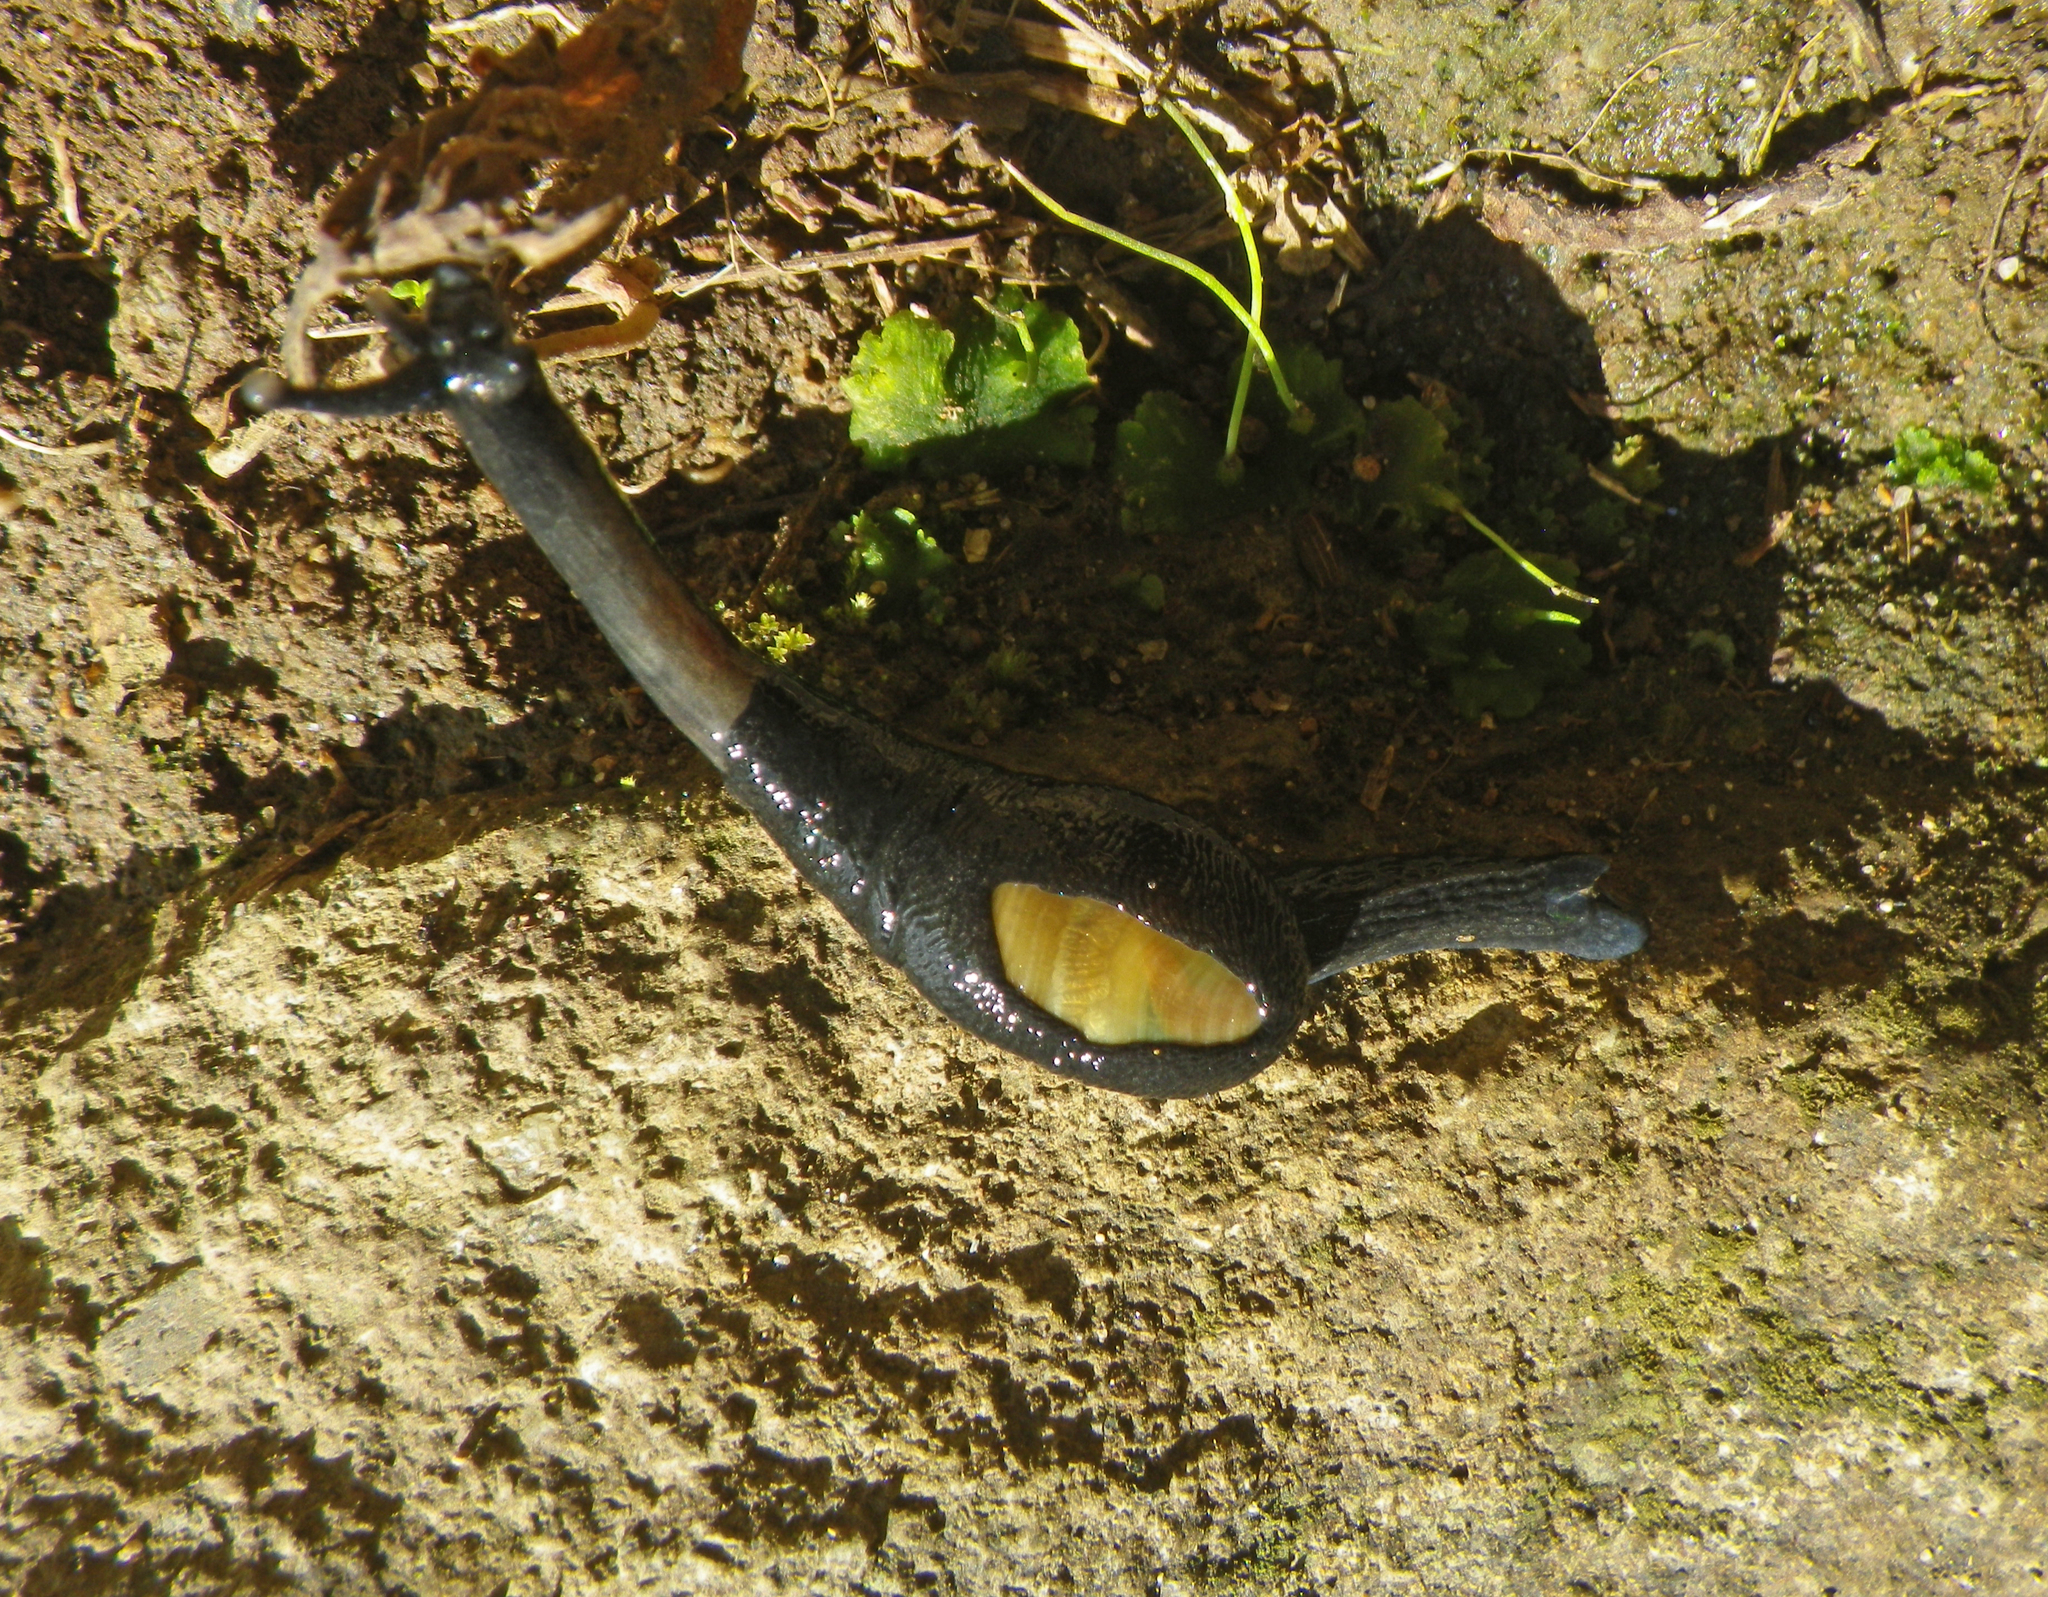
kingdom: Animalia
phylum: Mollusca
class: Gastropoda
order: Stylommatophora
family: Ariophantidae
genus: Parmarion
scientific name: Parmarion martensi
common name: Semi-slug
